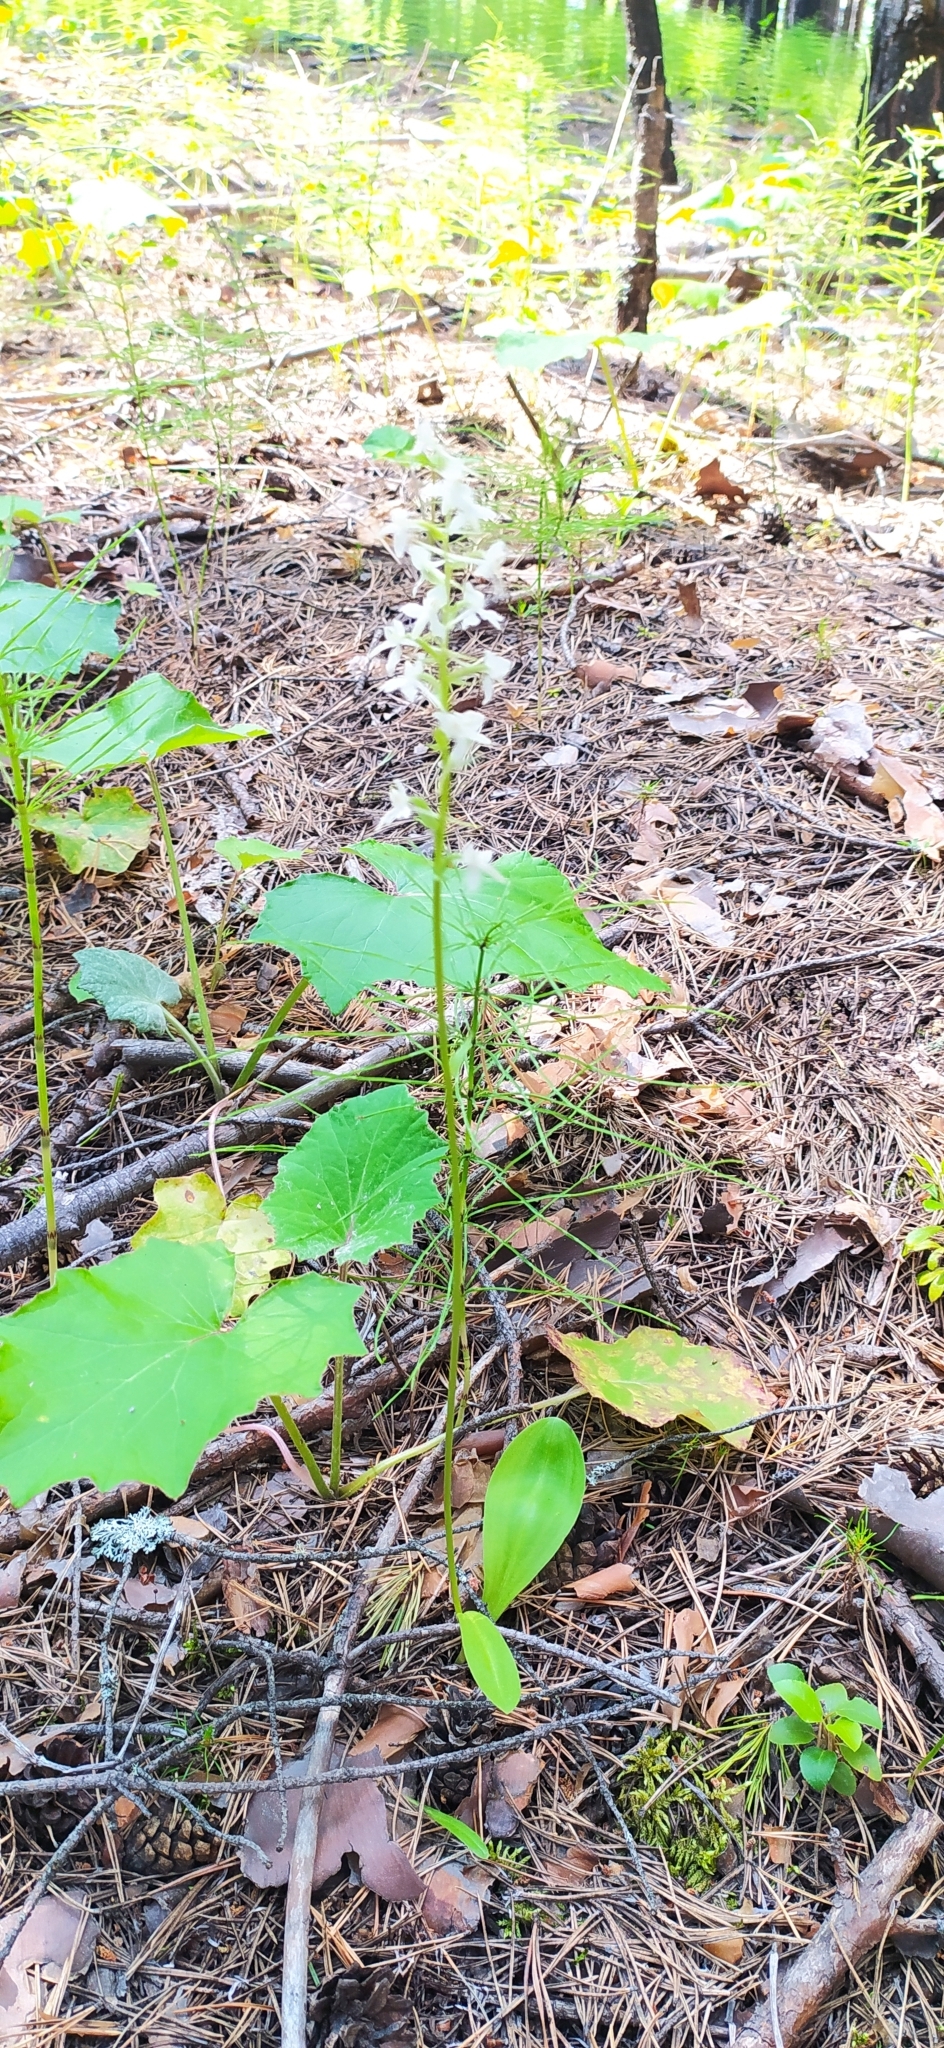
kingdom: Plantae
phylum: Tracheophyta
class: Liliopsida
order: Asparagales
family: Orchidaceae
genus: Platanthera
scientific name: Platanthera bifolia
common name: Lesser butterfly-orchid
